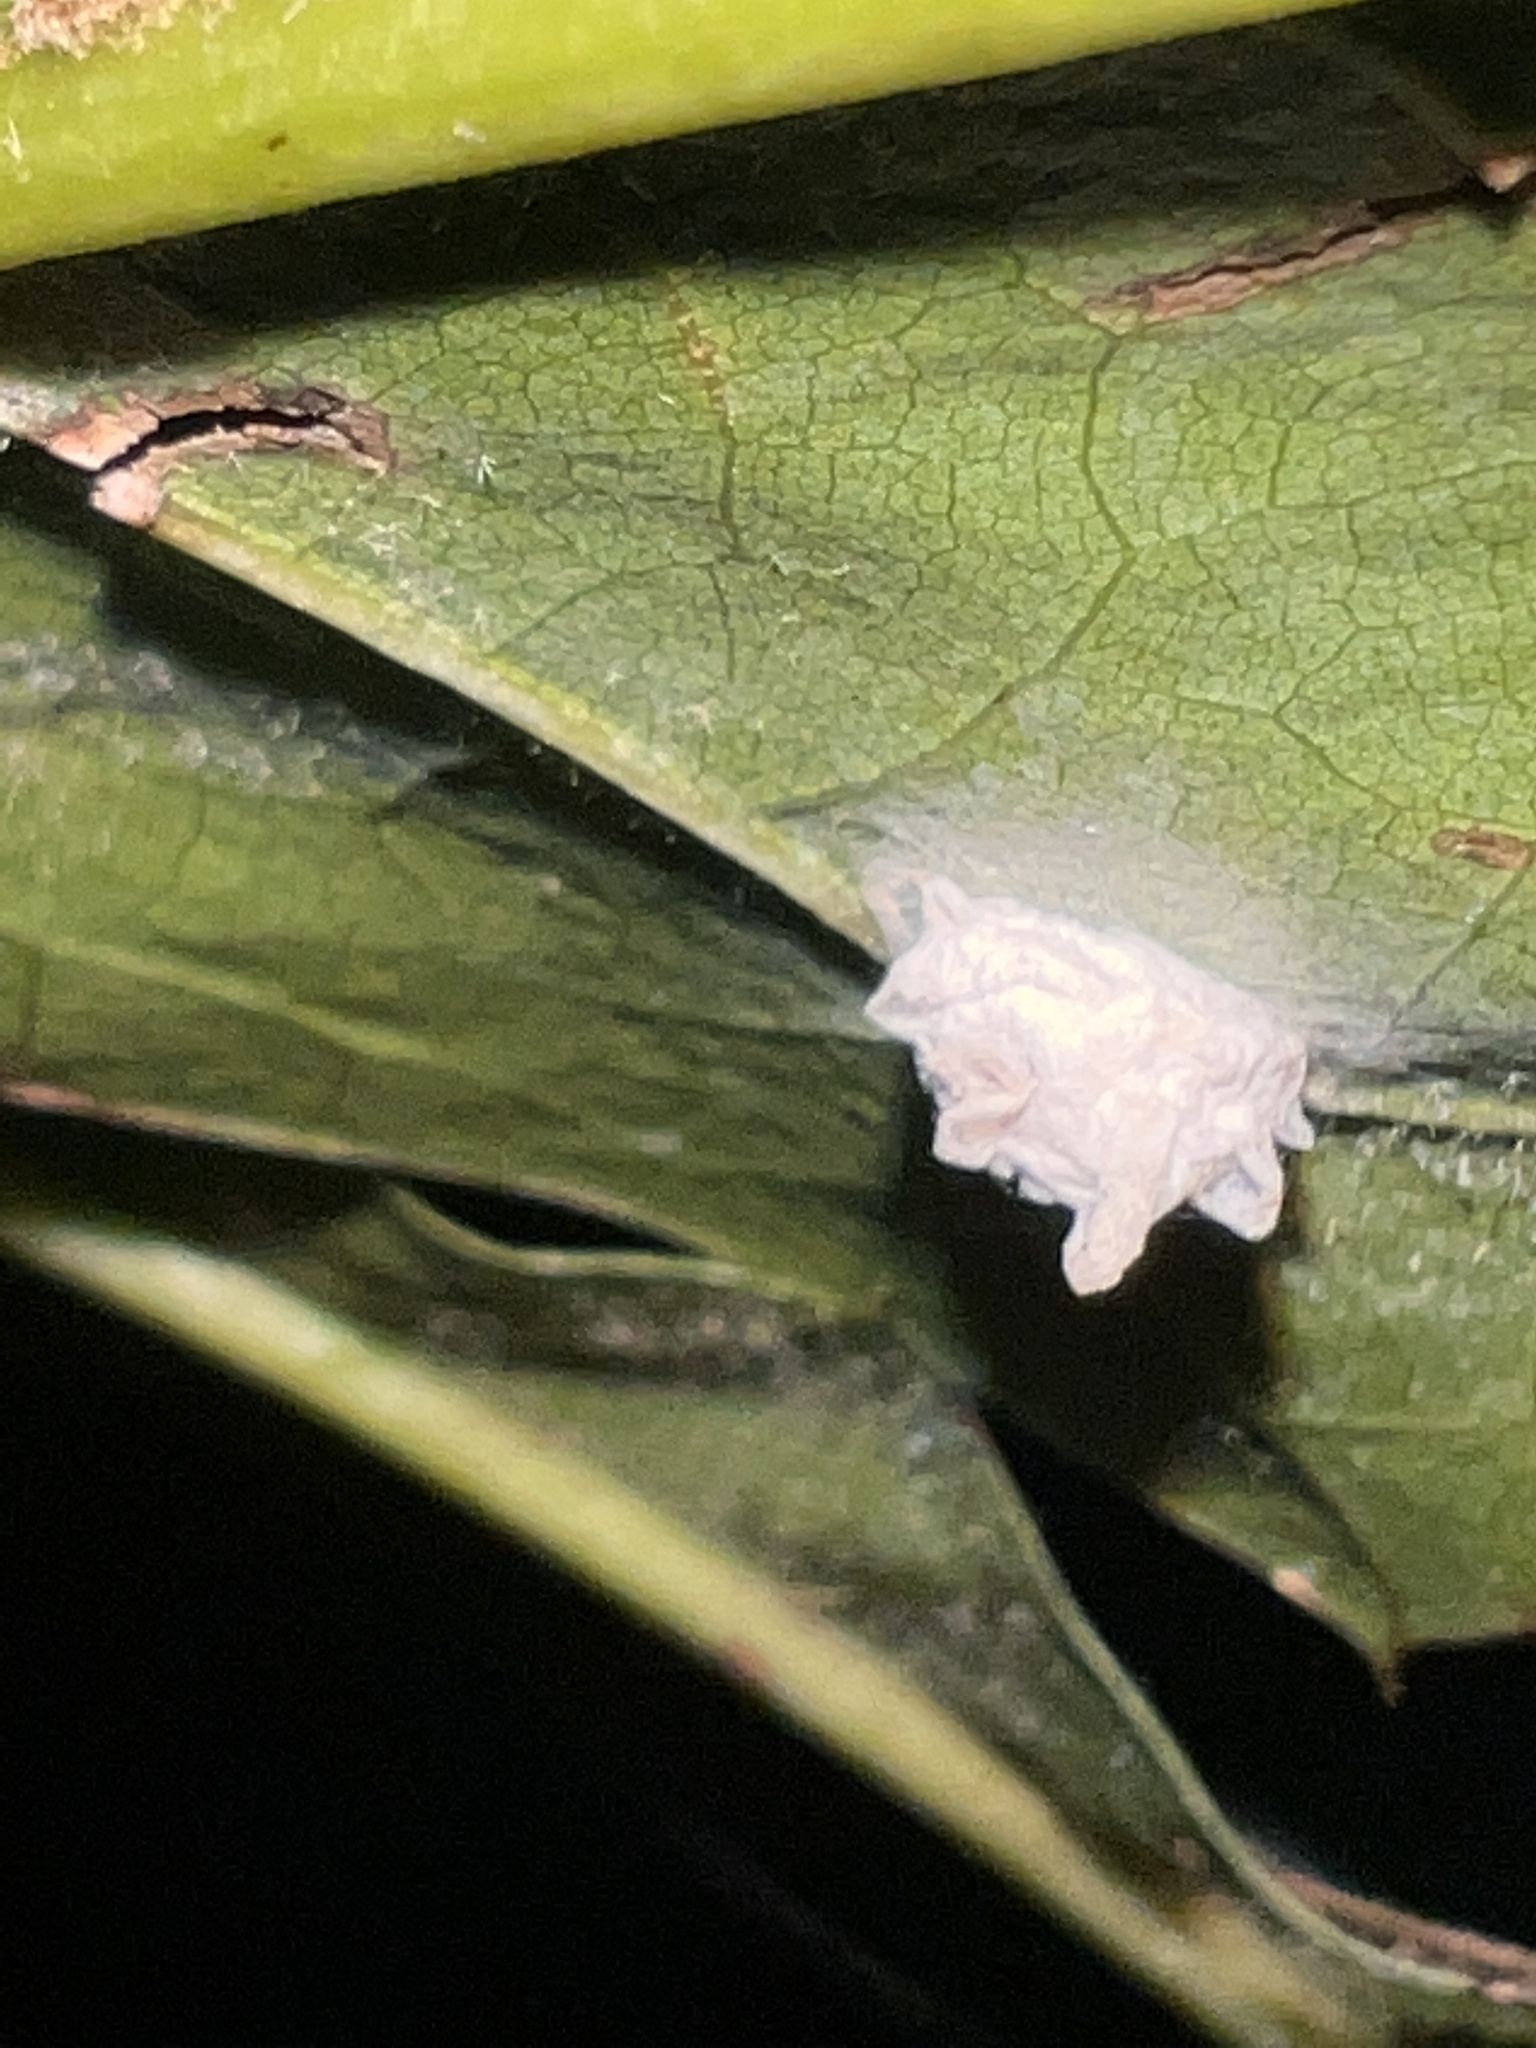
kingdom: Animalia
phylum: Arthropoda
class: Insecta
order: Lepidoptera
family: Epipyropidae
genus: Fulgoraecia
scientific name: Fulgoraecia exigua
